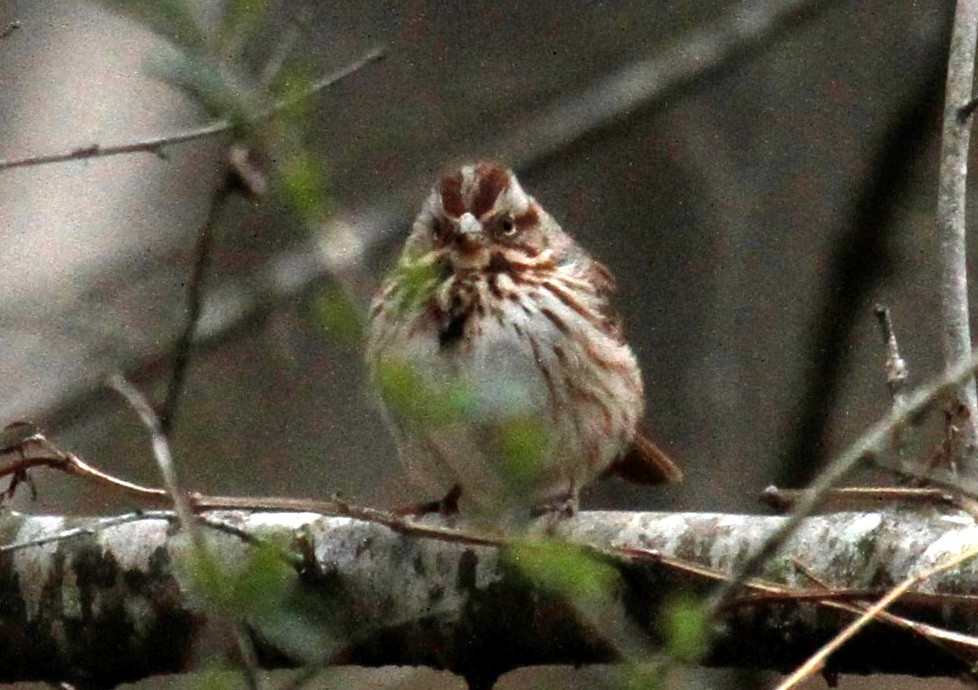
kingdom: Animalia
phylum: Chordata
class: Aves
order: Passeriformes
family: Passerellidae
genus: Melospiza
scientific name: Melospiza melodia
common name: Song sparrow
